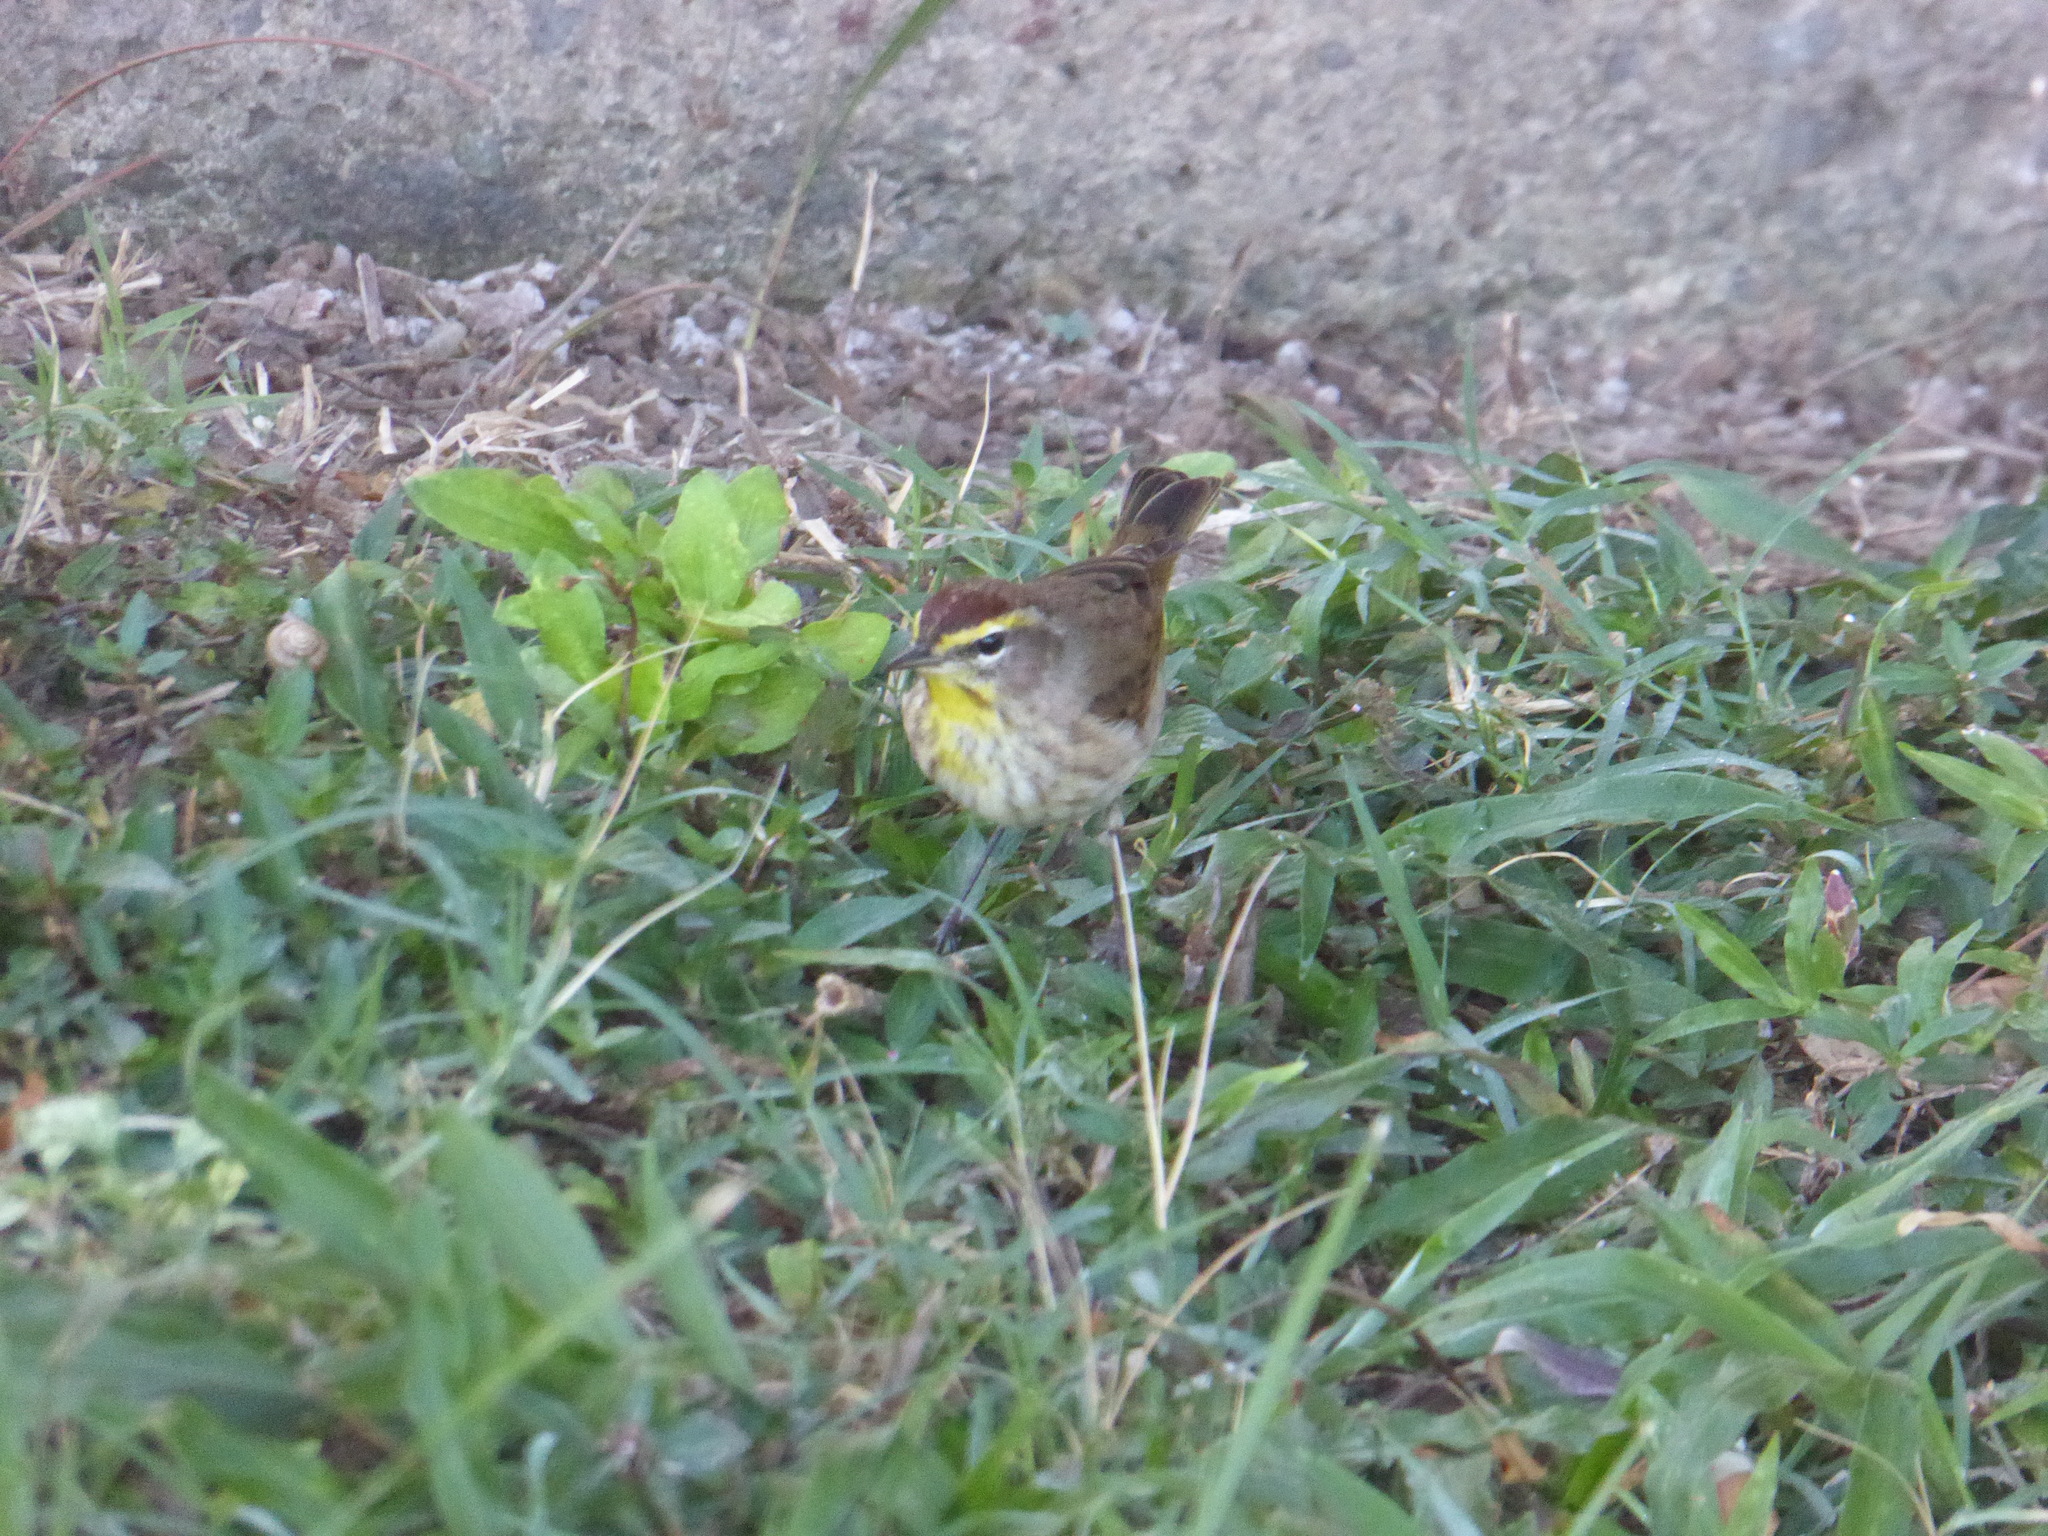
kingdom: Animalia
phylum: Chordata
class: Aves
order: Passeriformes
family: Parulidae
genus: Setophaga
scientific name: Setophaga palmarum
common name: Palm warbler
